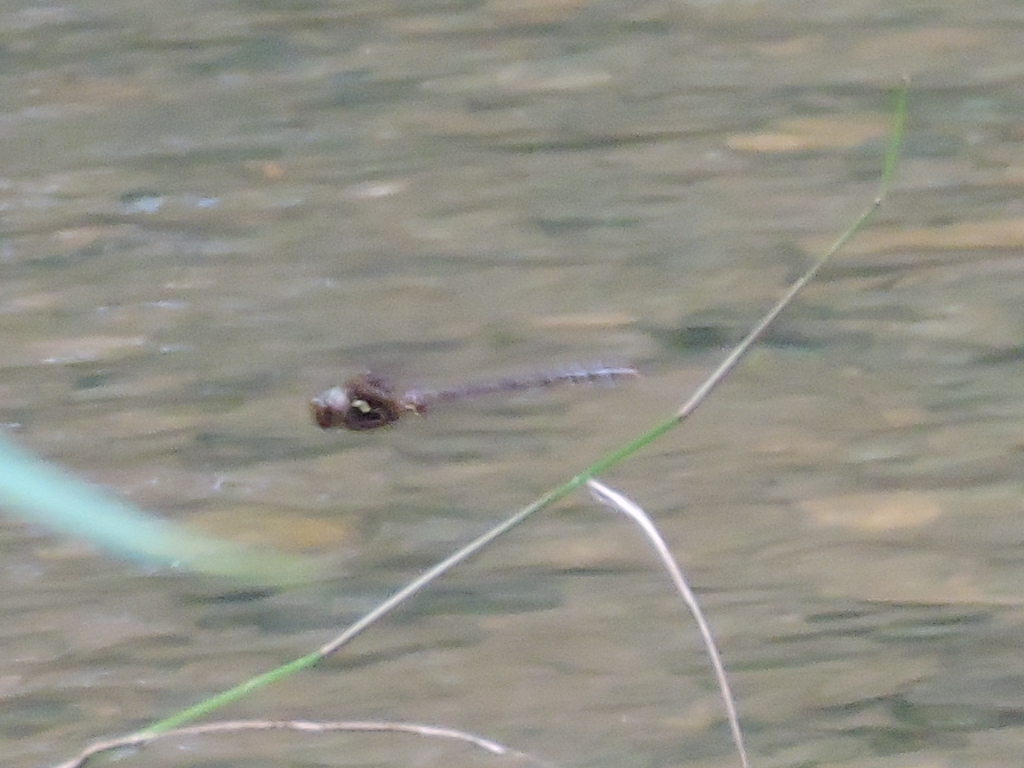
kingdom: Animalia
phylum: Arthropoda
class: Insecta
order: Odonata
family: Aeshnidae
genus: Boyeria
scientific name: Boyeria vinosa
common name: Fawn darner
